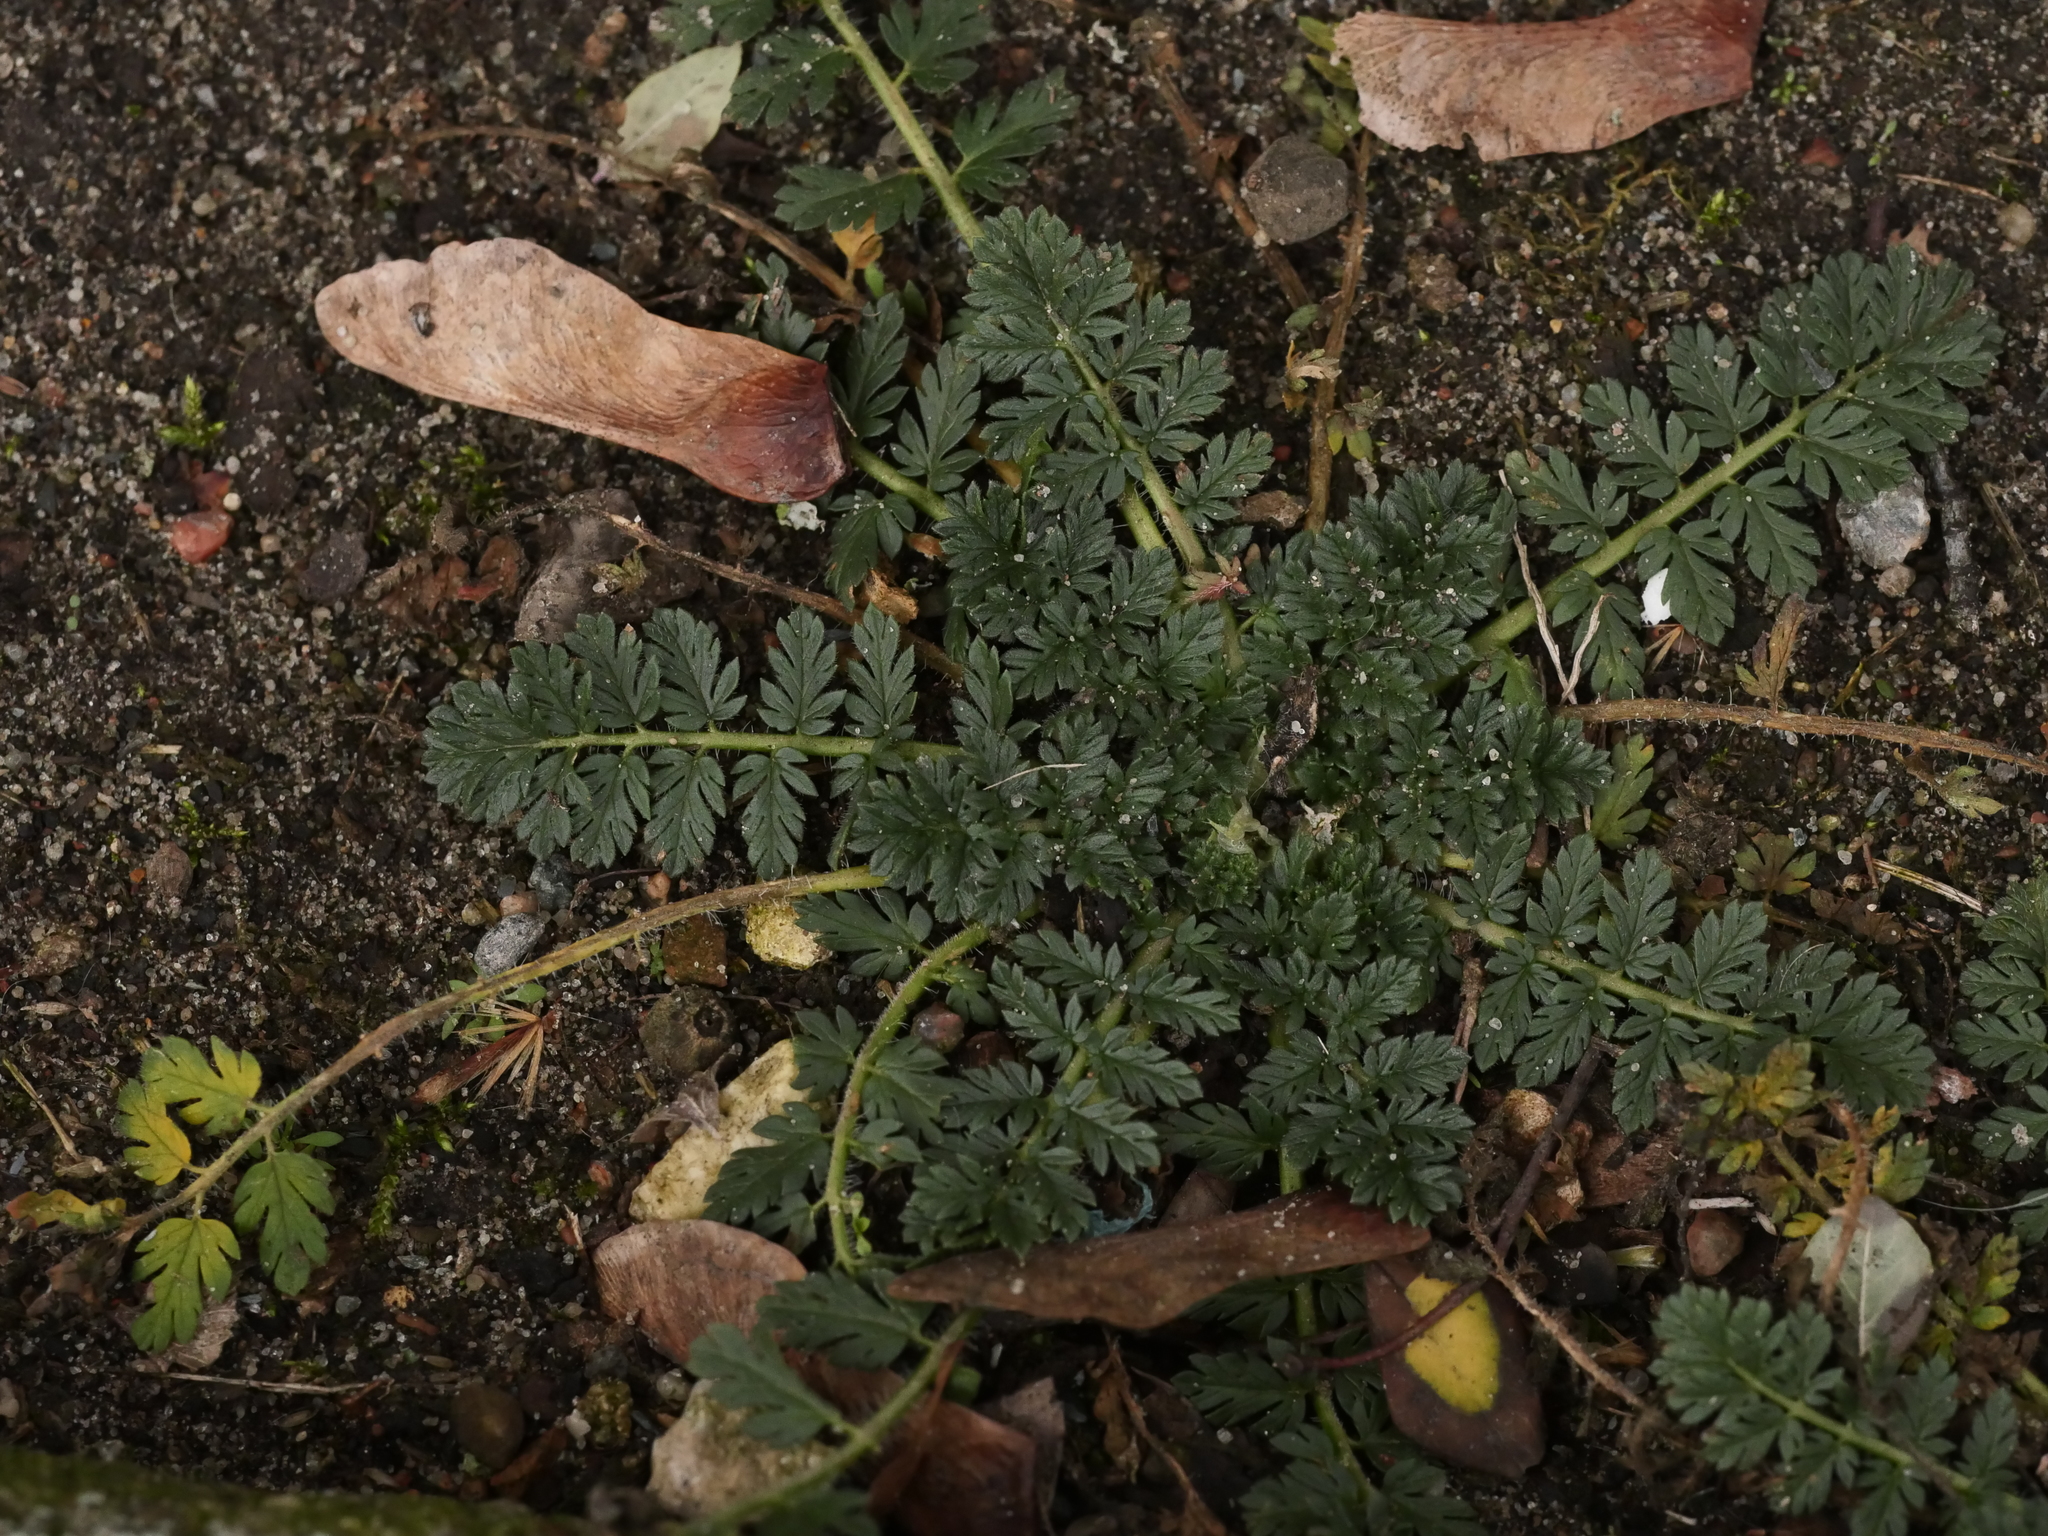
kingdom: Plantae
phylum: Tracheophyta
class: Magnoliopsida
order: Geraniales
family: Geraniaceae
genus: Erodium
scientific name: Erodium cicutarium
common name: Common stork's-bill
